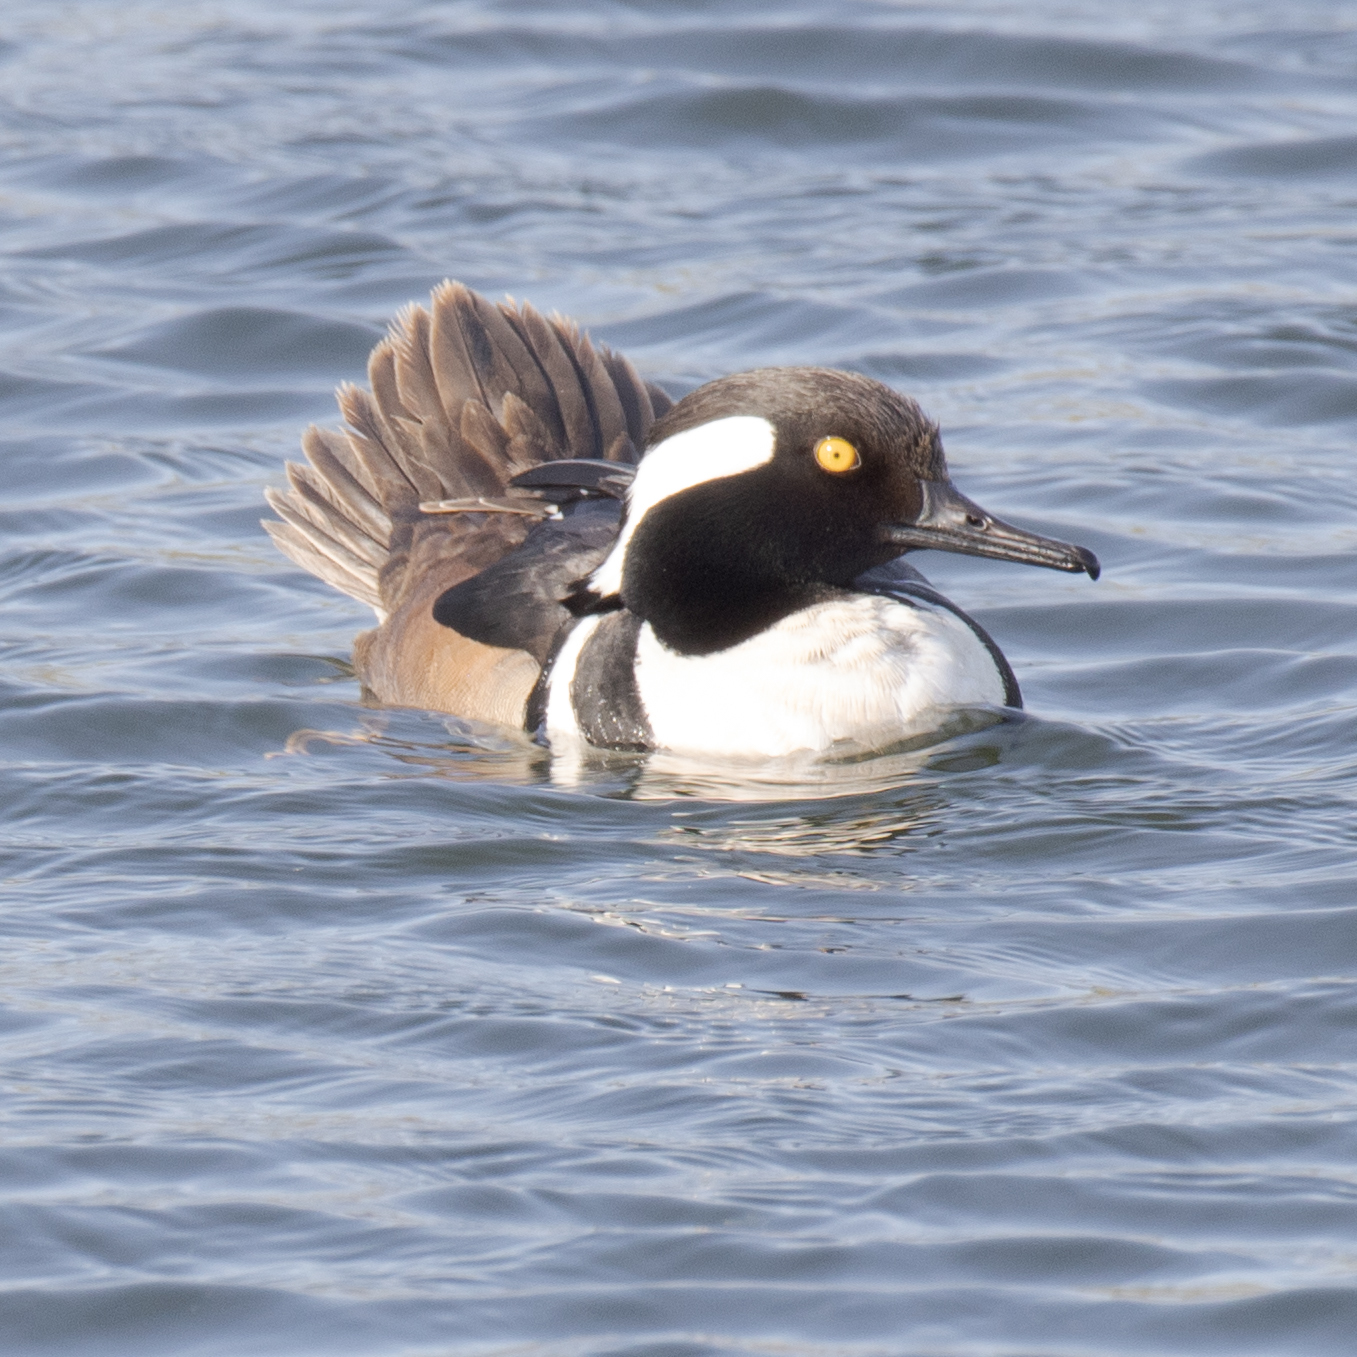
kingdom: Animalia
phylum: Chordata
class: Aves
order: Anseriformes
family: Anatidae
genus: Lophodytes
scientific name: Lophodytes cucullatus
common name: Hooded merganser
